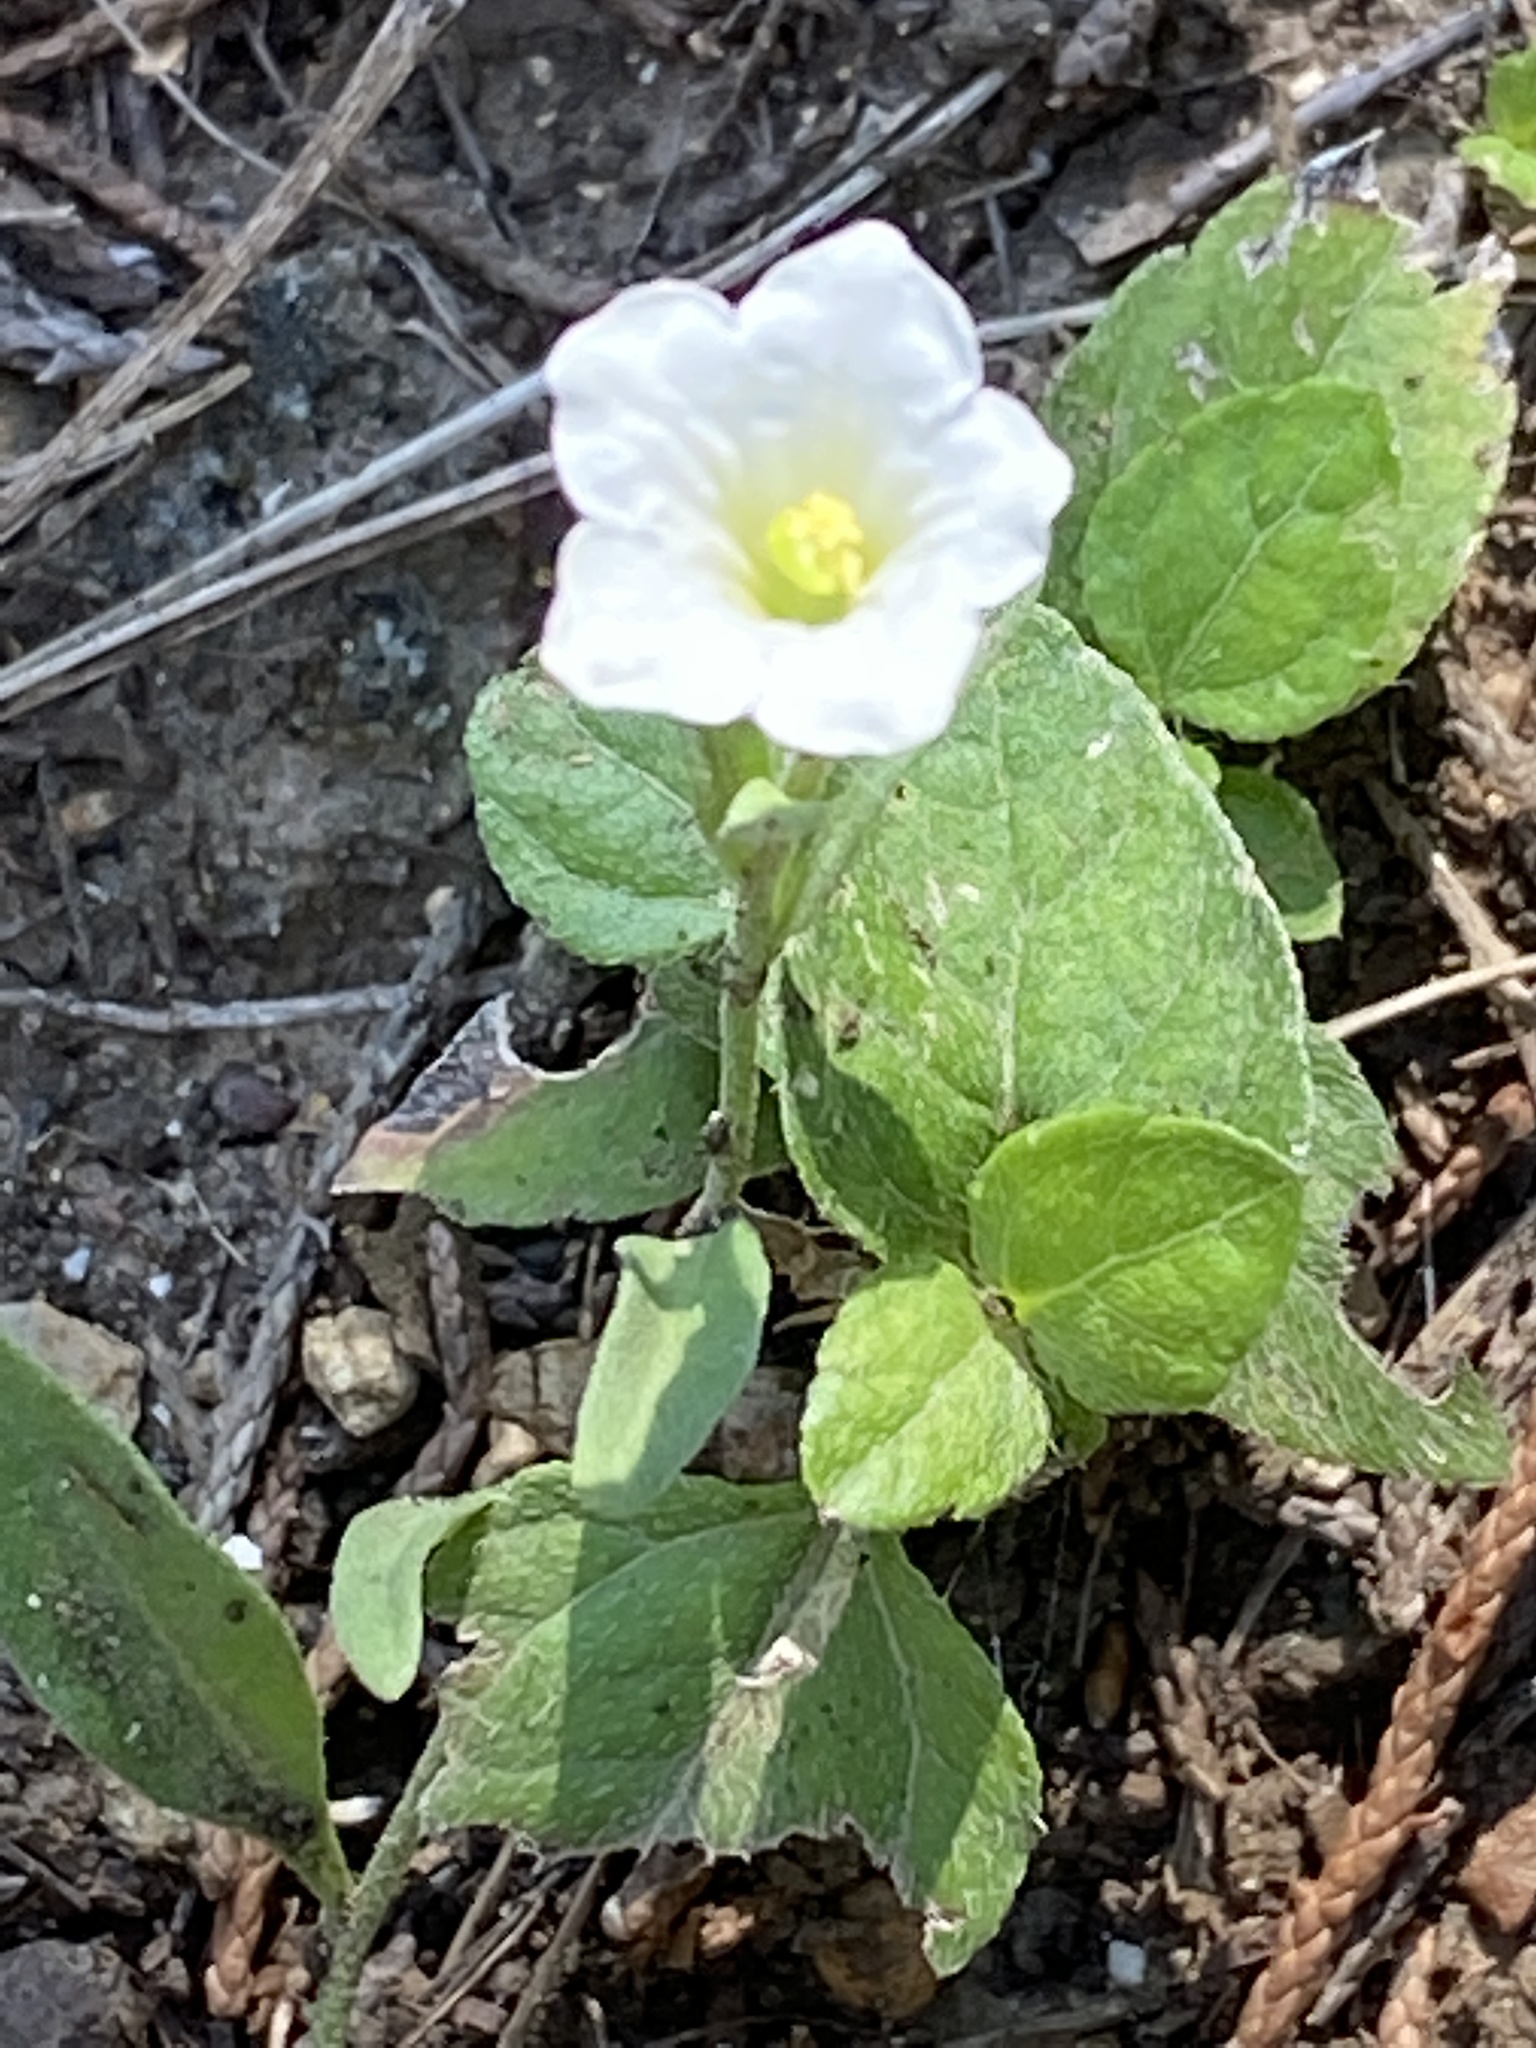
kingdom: Plantae
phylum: Tracheophyta
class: Magnoliopsida
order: Solanales
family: Solanaceae
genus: Salpiglossis
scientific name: Salpiglossis erecta
